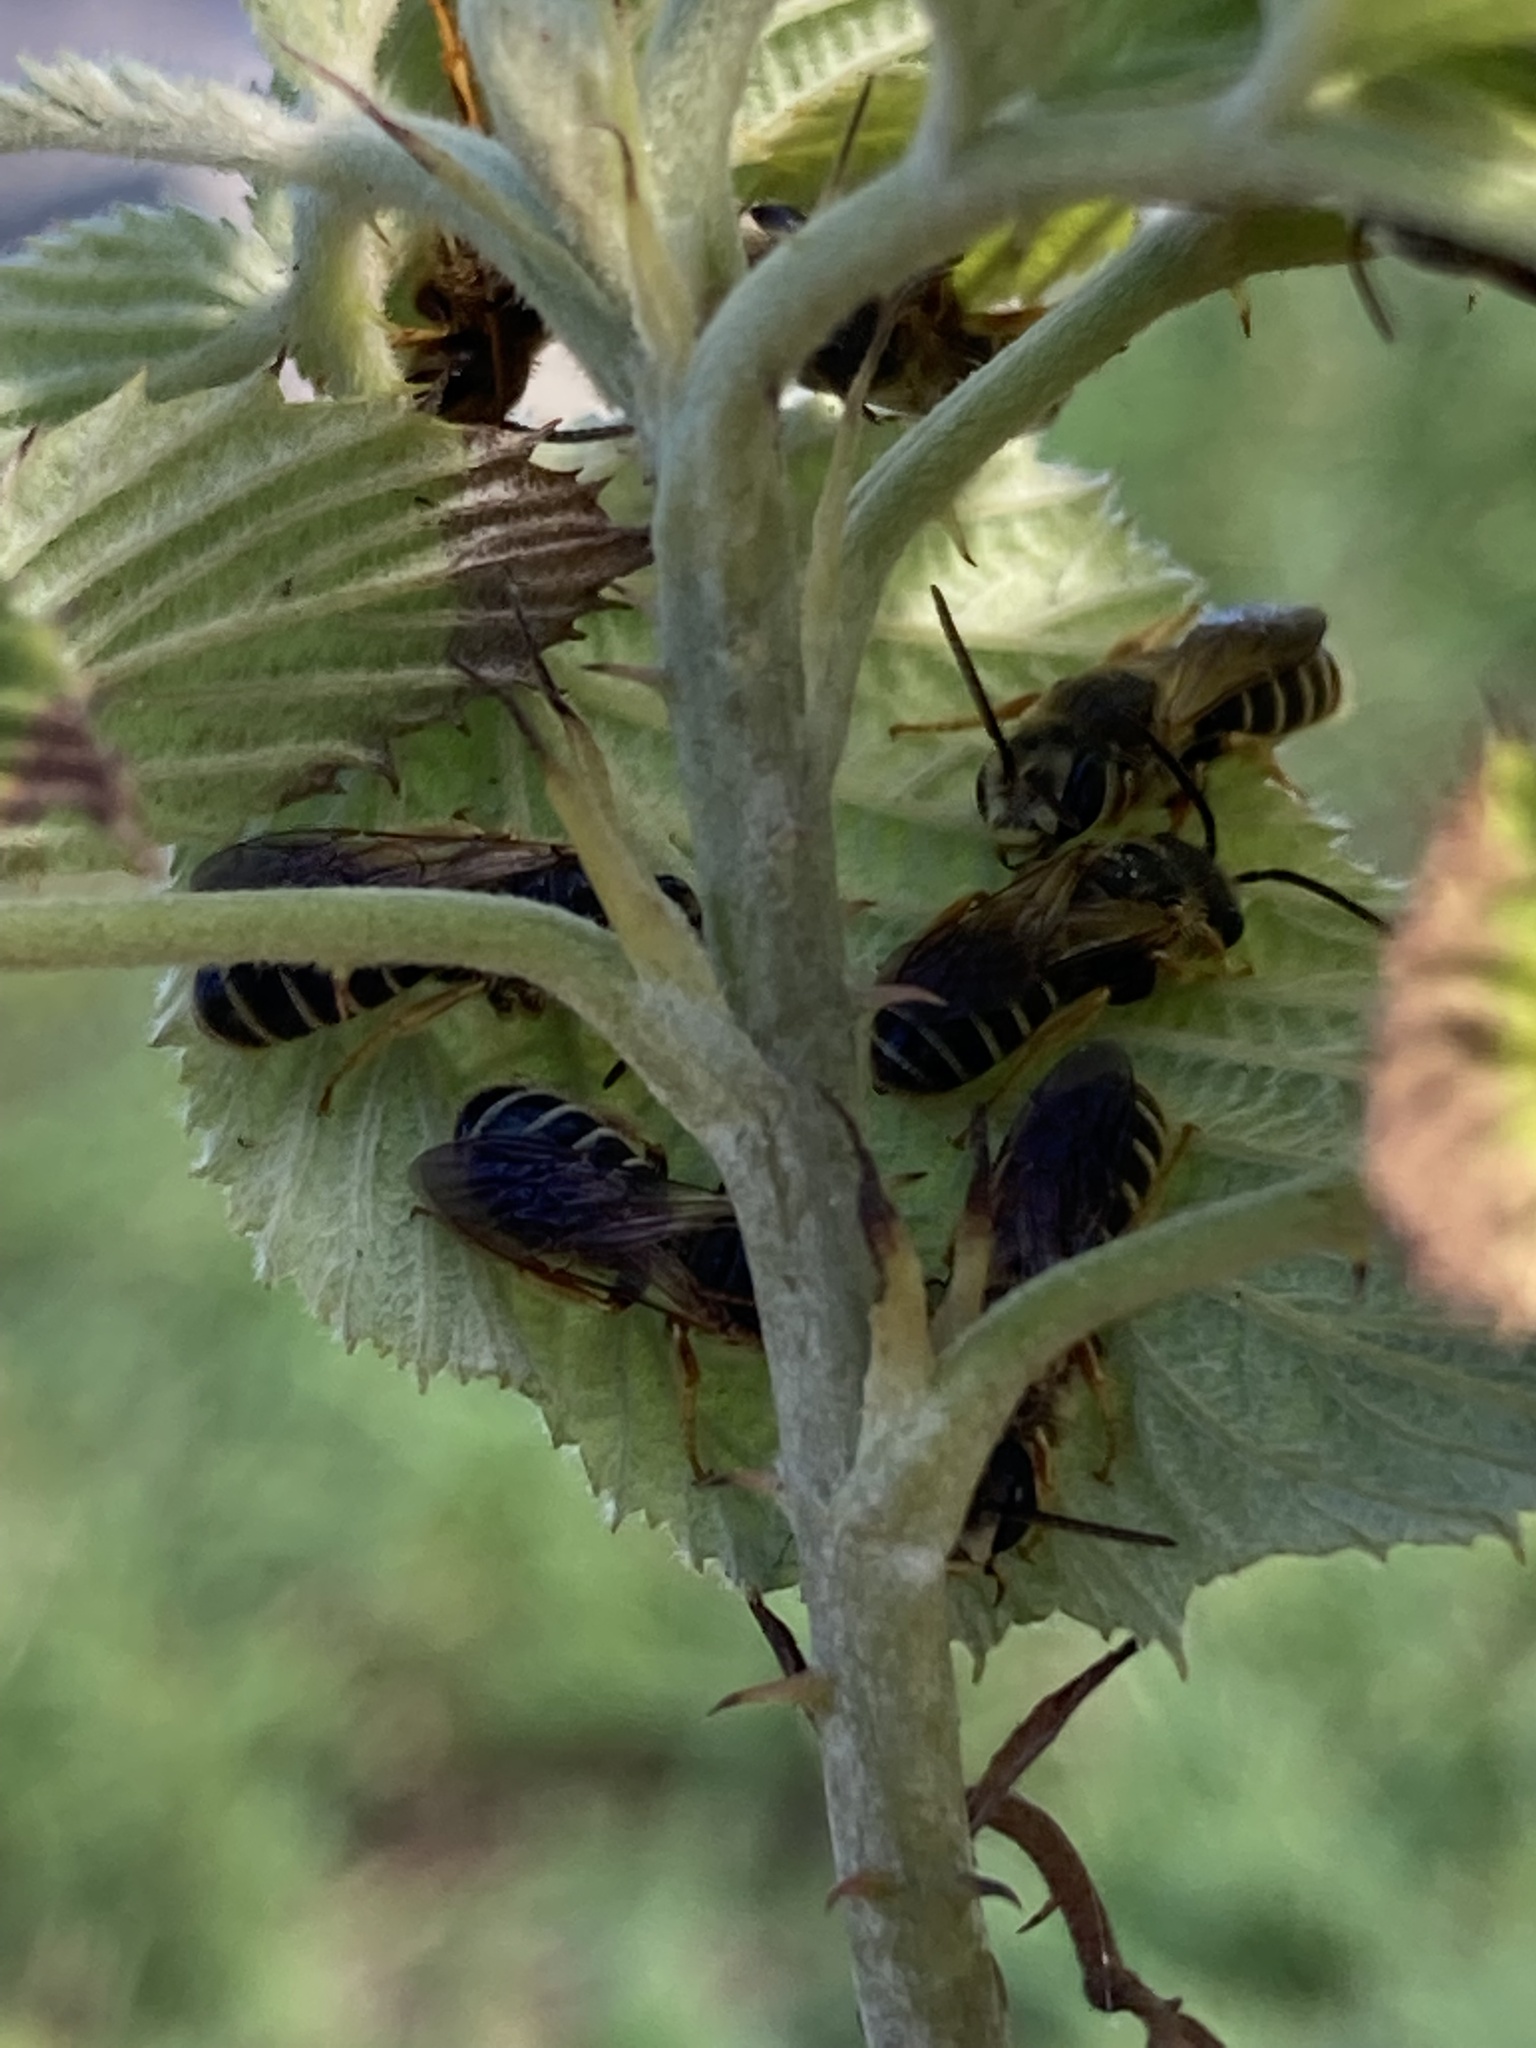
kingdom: Animalia
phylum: Arthropoda
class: Insecta
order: Hymenoptera
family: Halictidae
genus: Halictus
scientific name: Halictus poeyi
